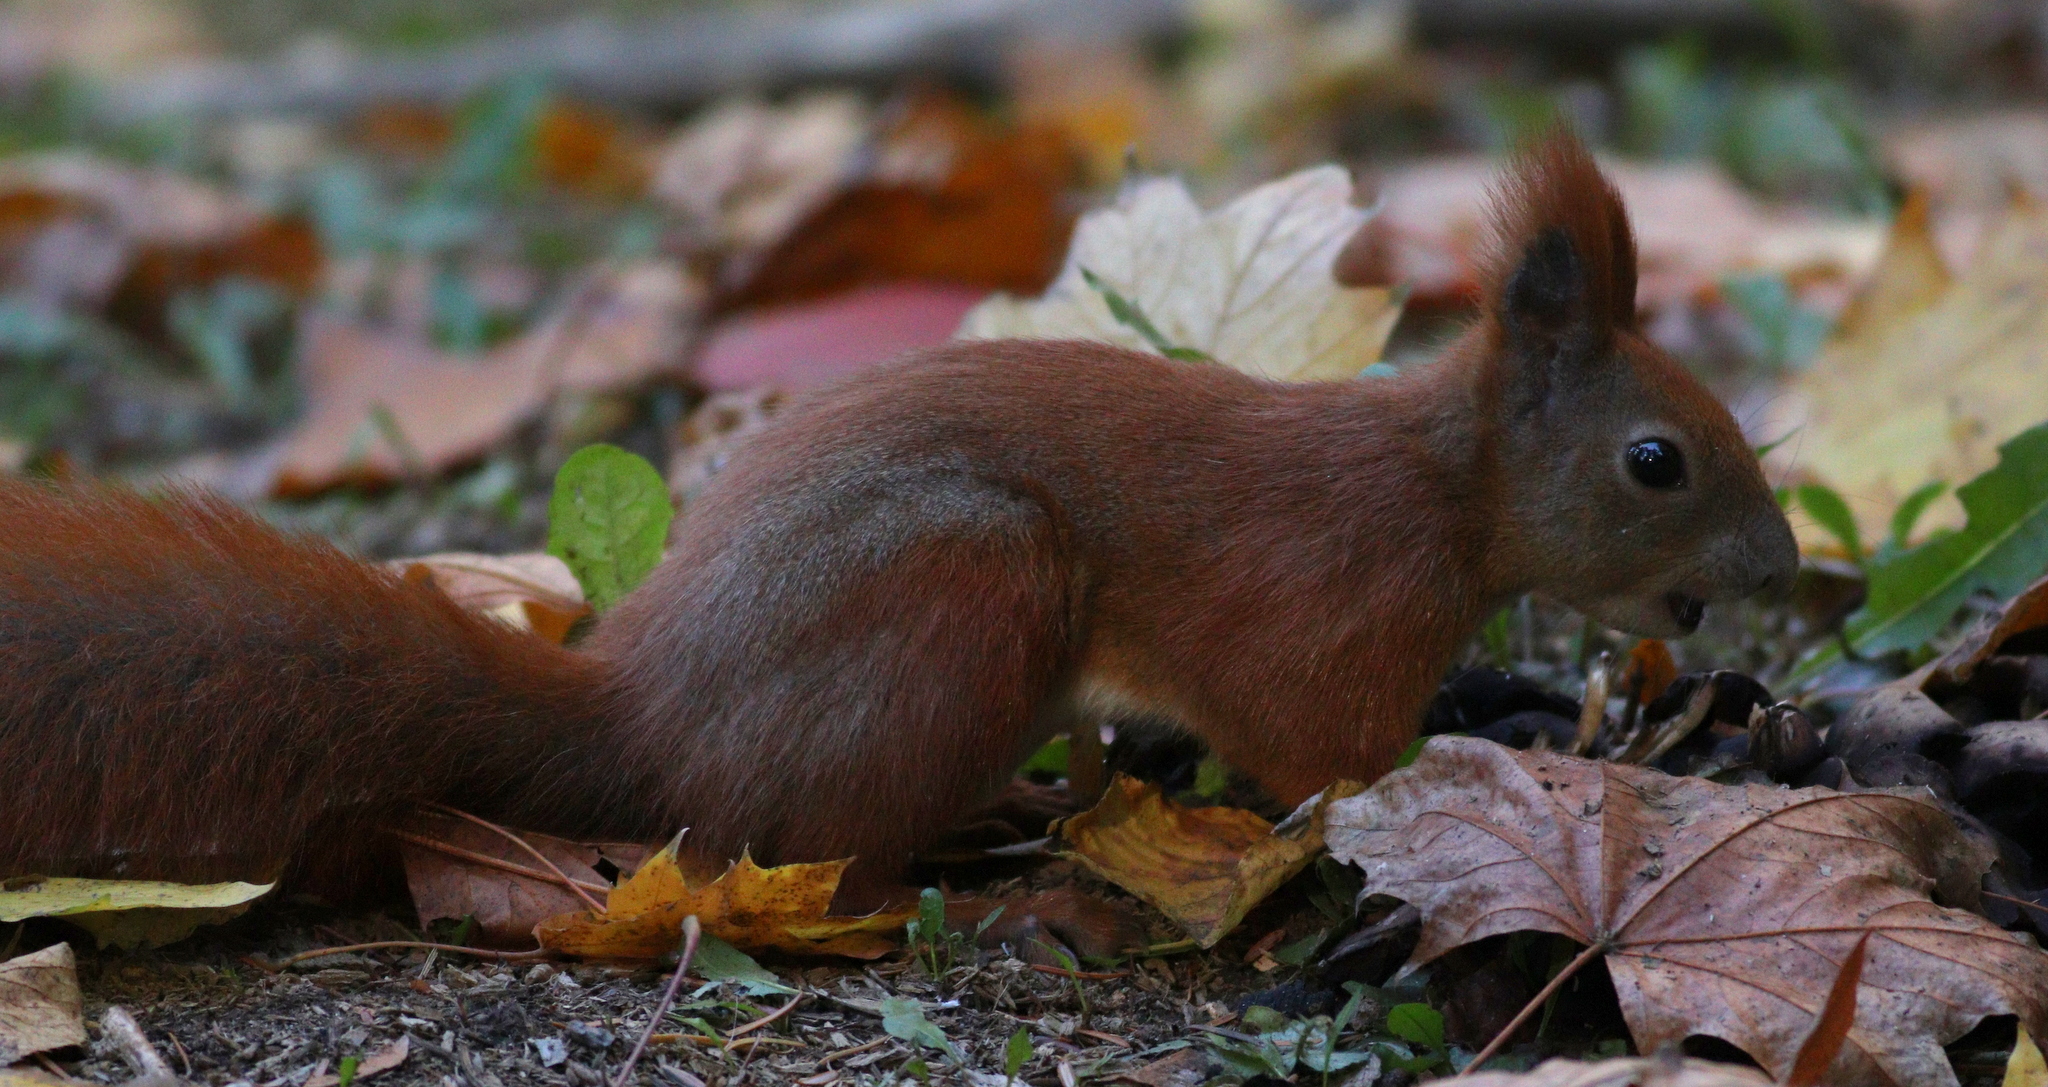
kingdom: Animalia
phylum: Chordata
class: Mammalia
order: Rodentia
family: Sciuridae
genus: Sciurus
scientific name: Sciurus vulgaris
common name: Eurasian red squirrel
